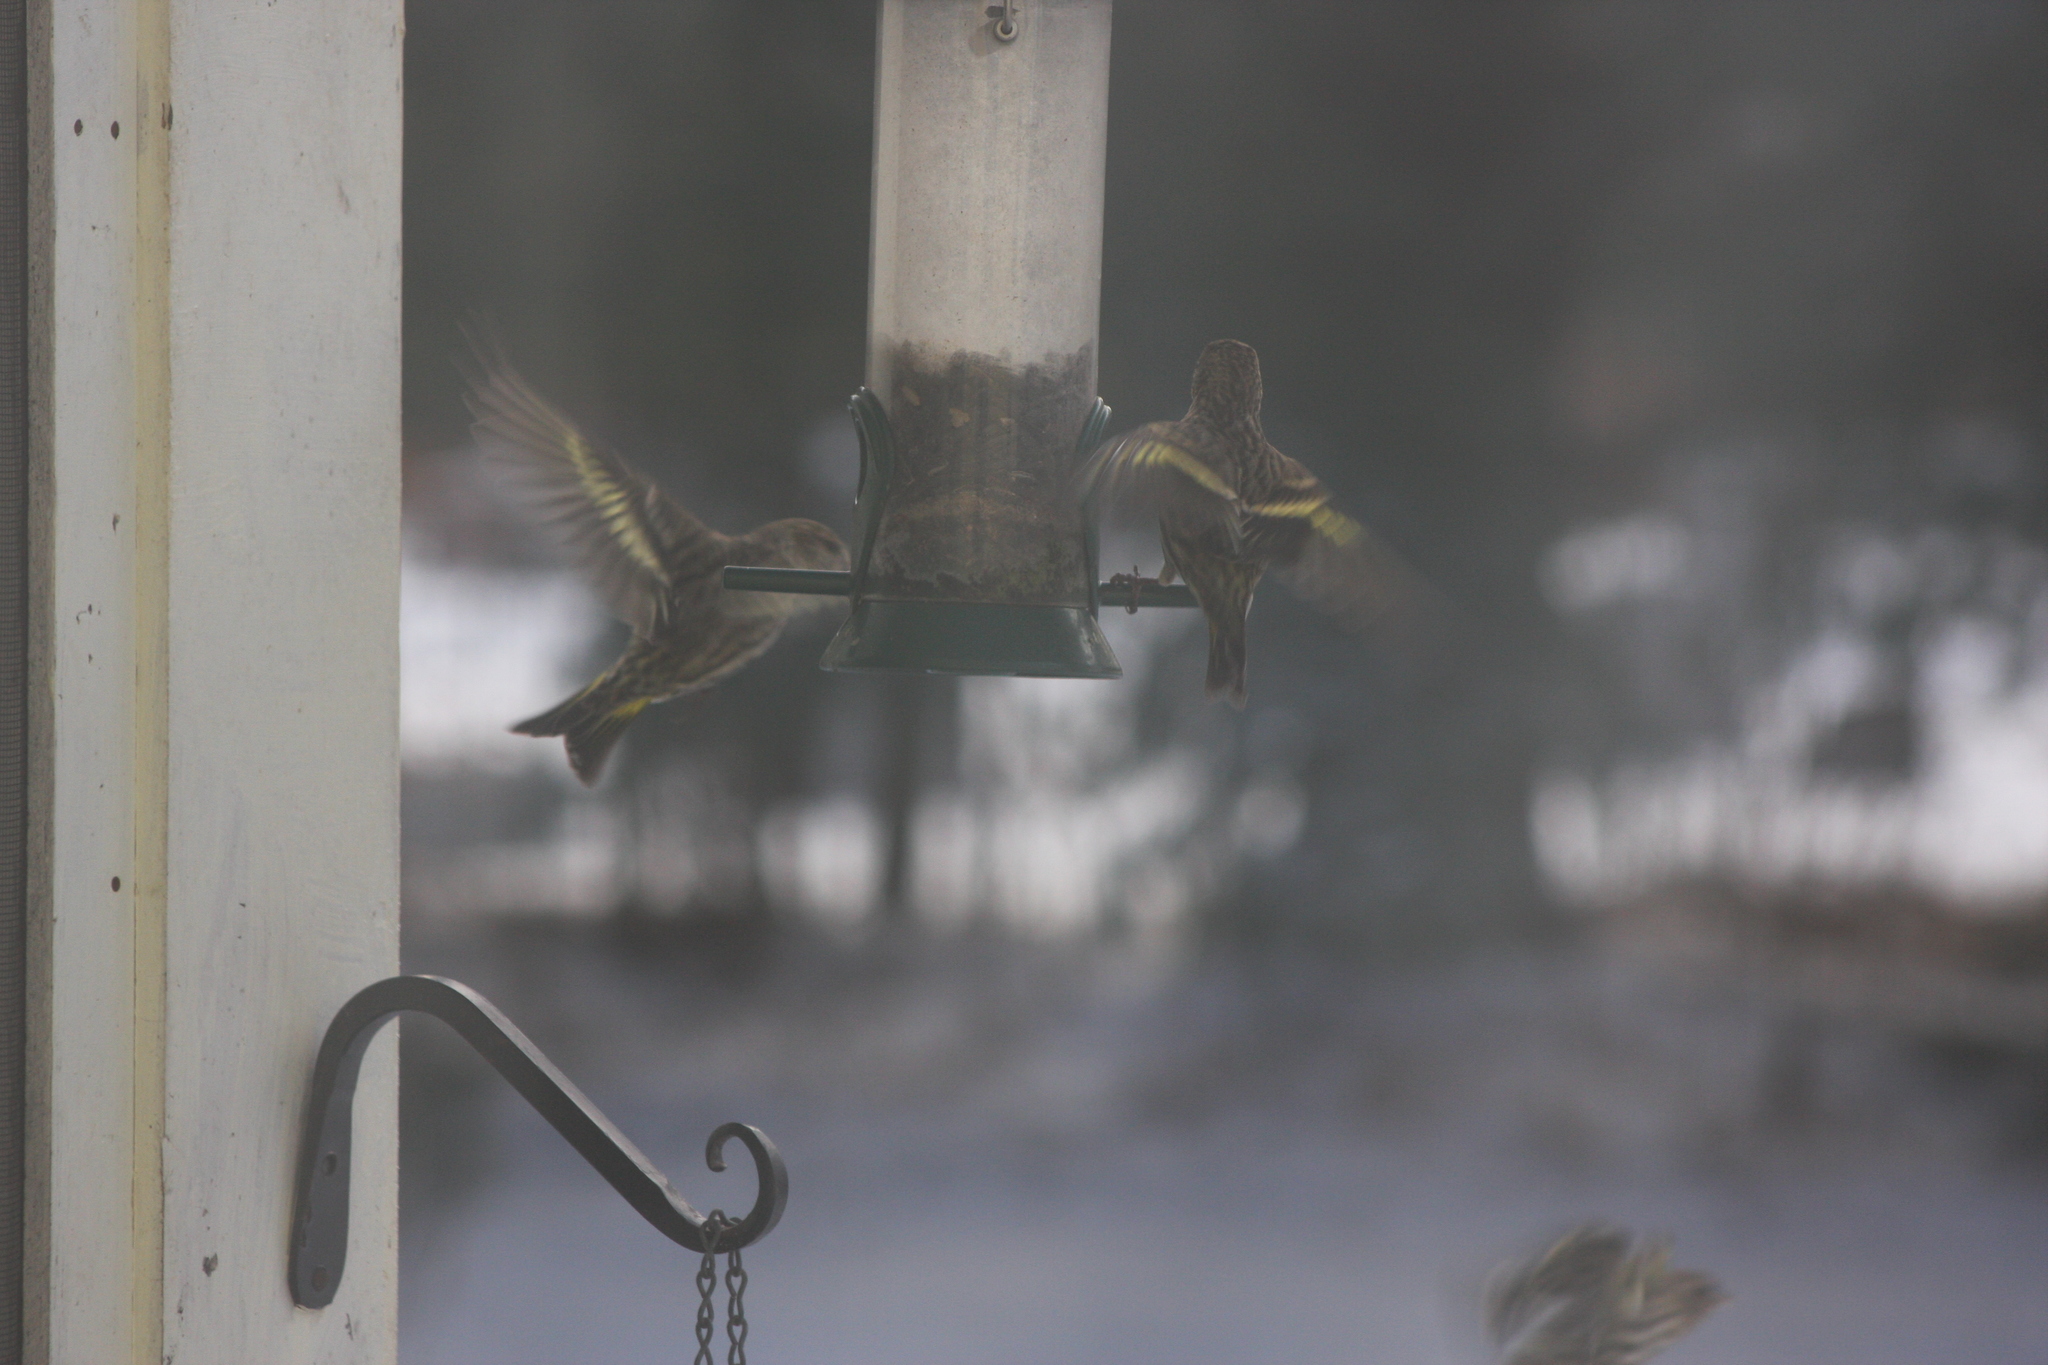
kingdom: Animalia
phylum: Chordata
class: Aves
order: Passeriformes
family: Fringillidae
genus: Spinus
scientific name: Spinus pinus
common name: Pine siskin
